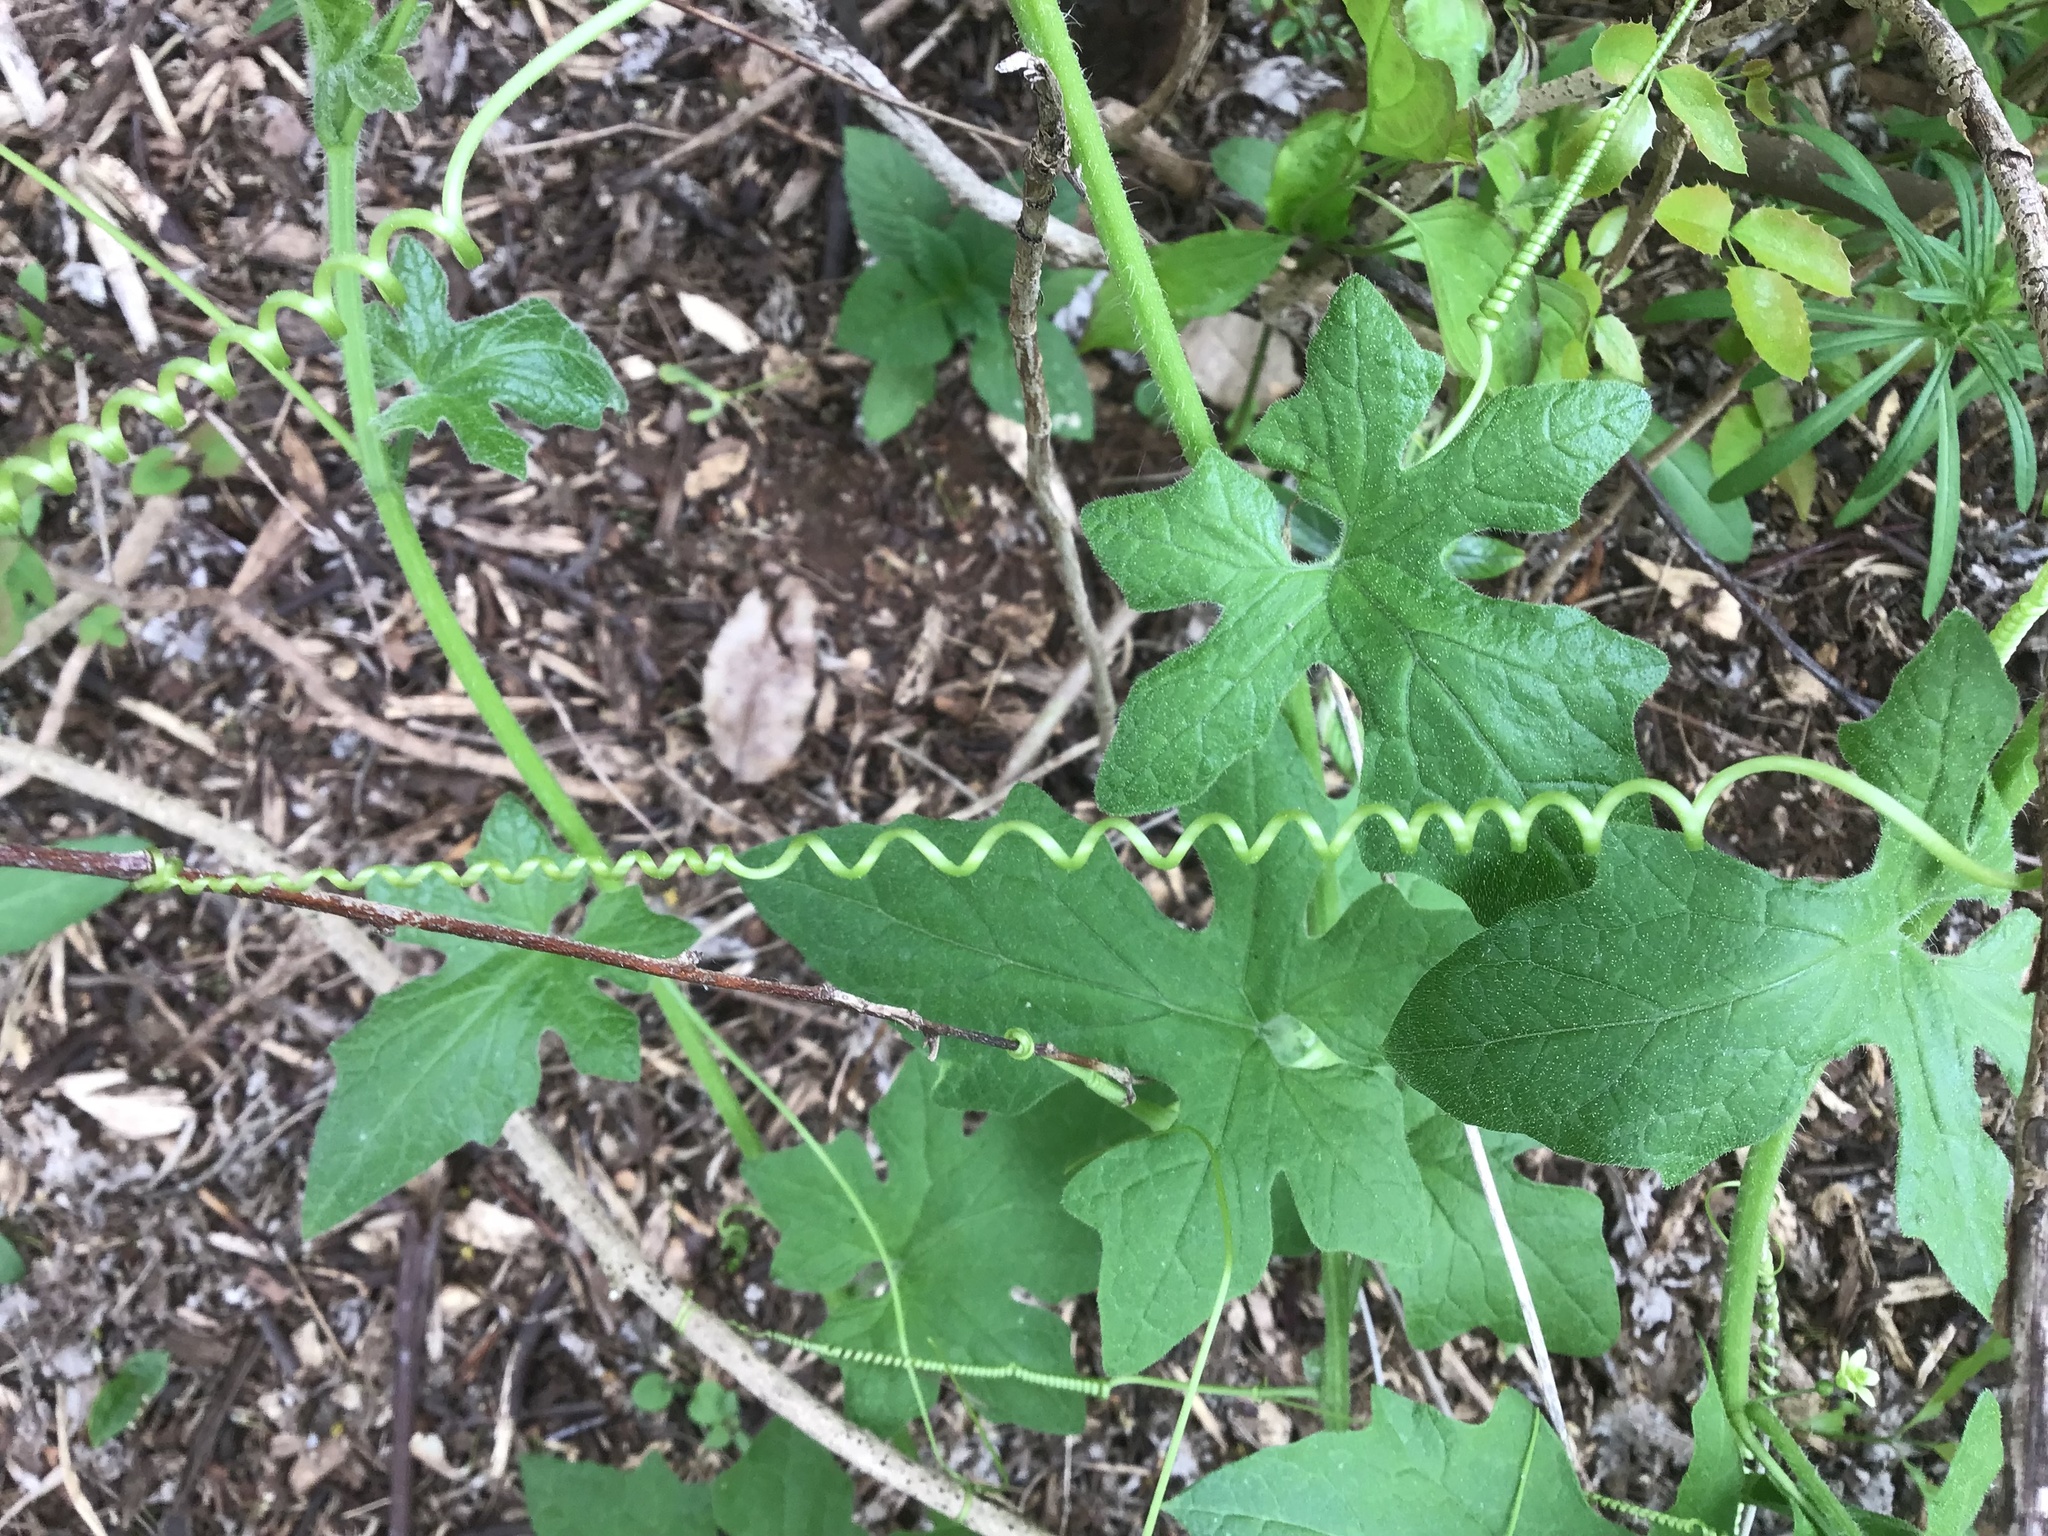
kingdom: Plantae
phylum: Tracheophyta
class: Magnoliopsida
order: Cucurbitales
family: Cucurbitaceae
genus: Bryonia
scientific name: Bryonia cretica
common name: Cretan bryony
